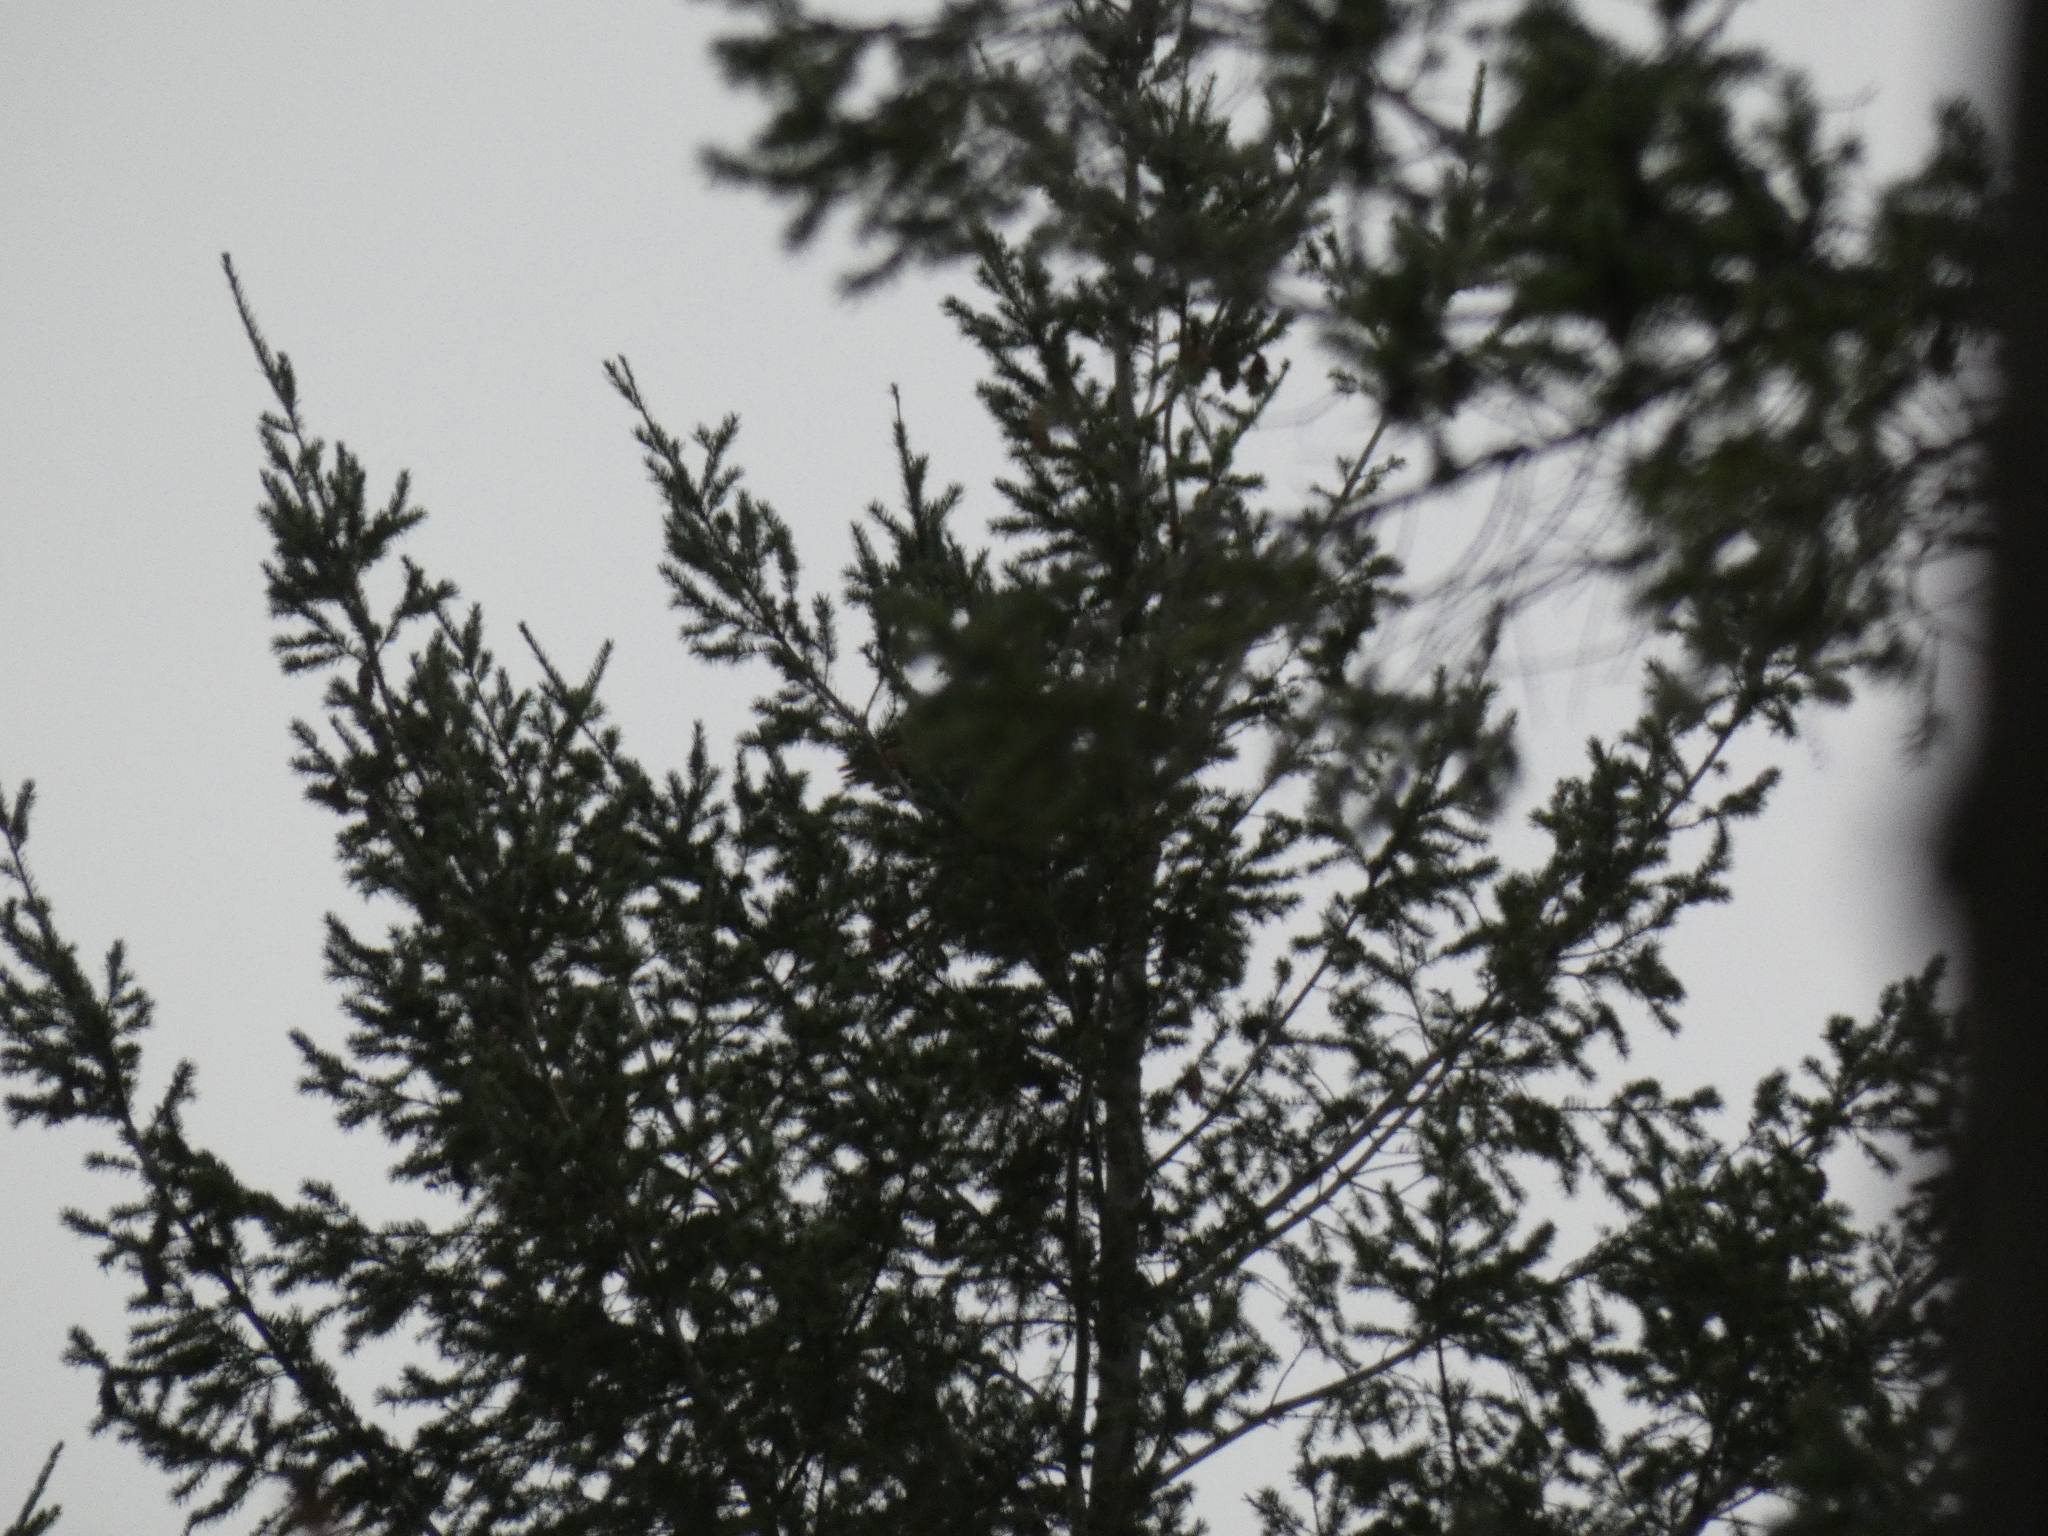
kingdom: Animalia
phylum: Chordata
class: Aves
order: Accipitriformes
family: Accipitridae
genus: Buteo
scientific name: Buteo jamaicensis
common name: Red-tailed hawk
